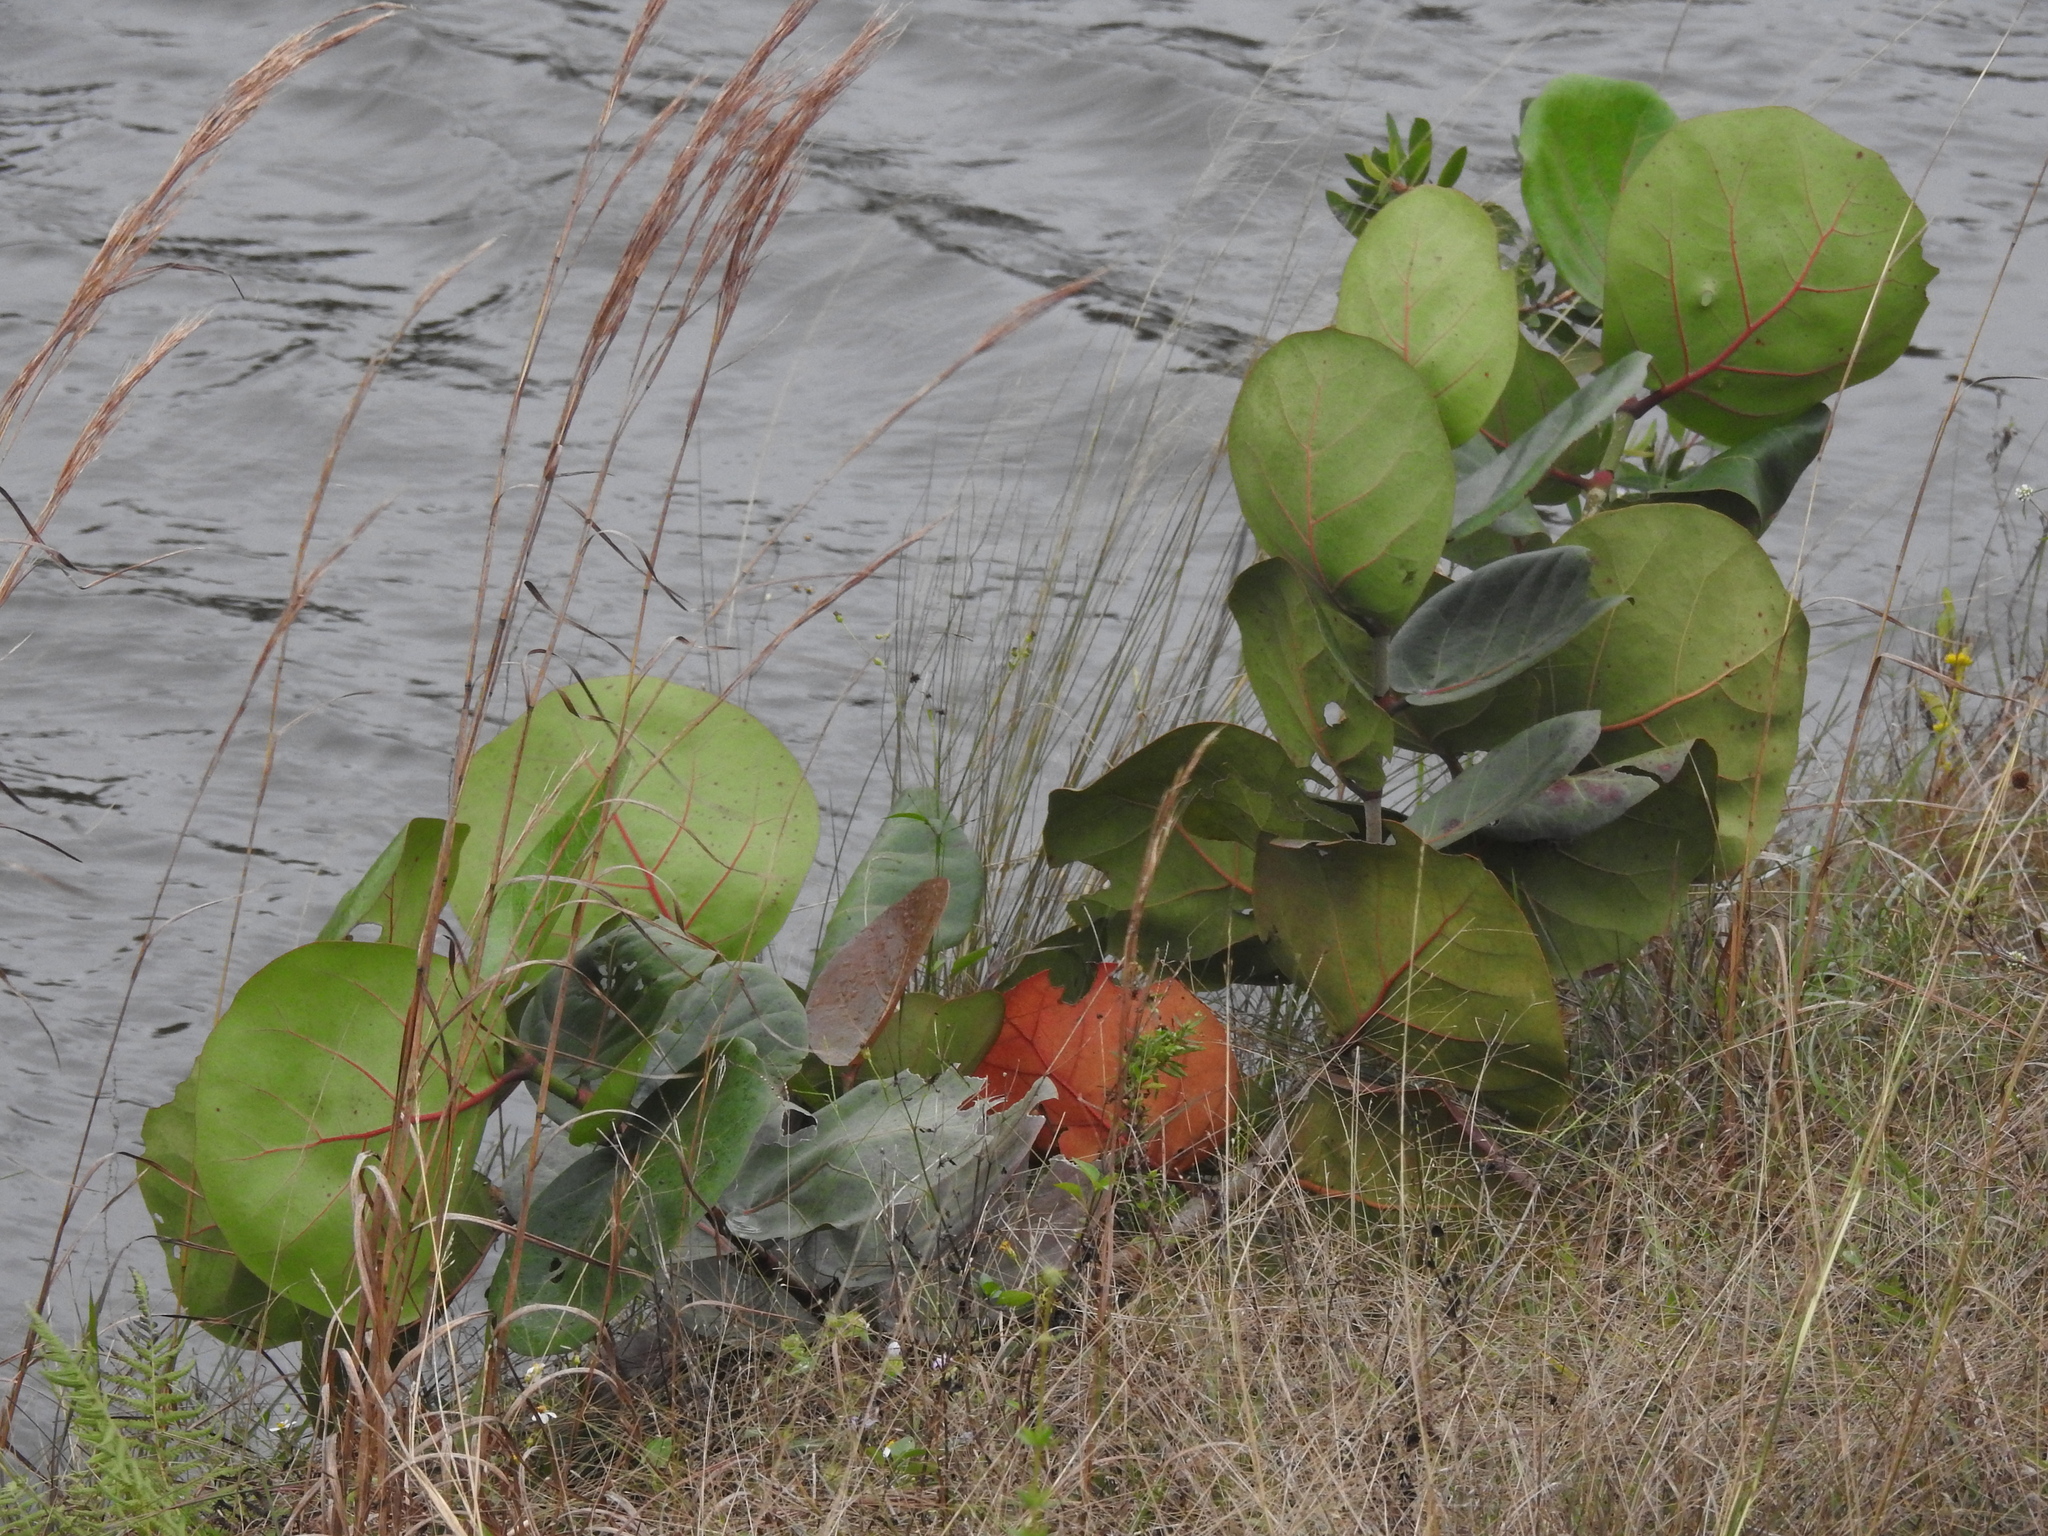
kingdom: Plantae
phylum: Tracheophyta
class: Magnoliopsida
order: Caryophyllales
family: Polygonaceae
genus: Coccoloba
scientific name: Coccoloba uvifera
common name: Seagrape
